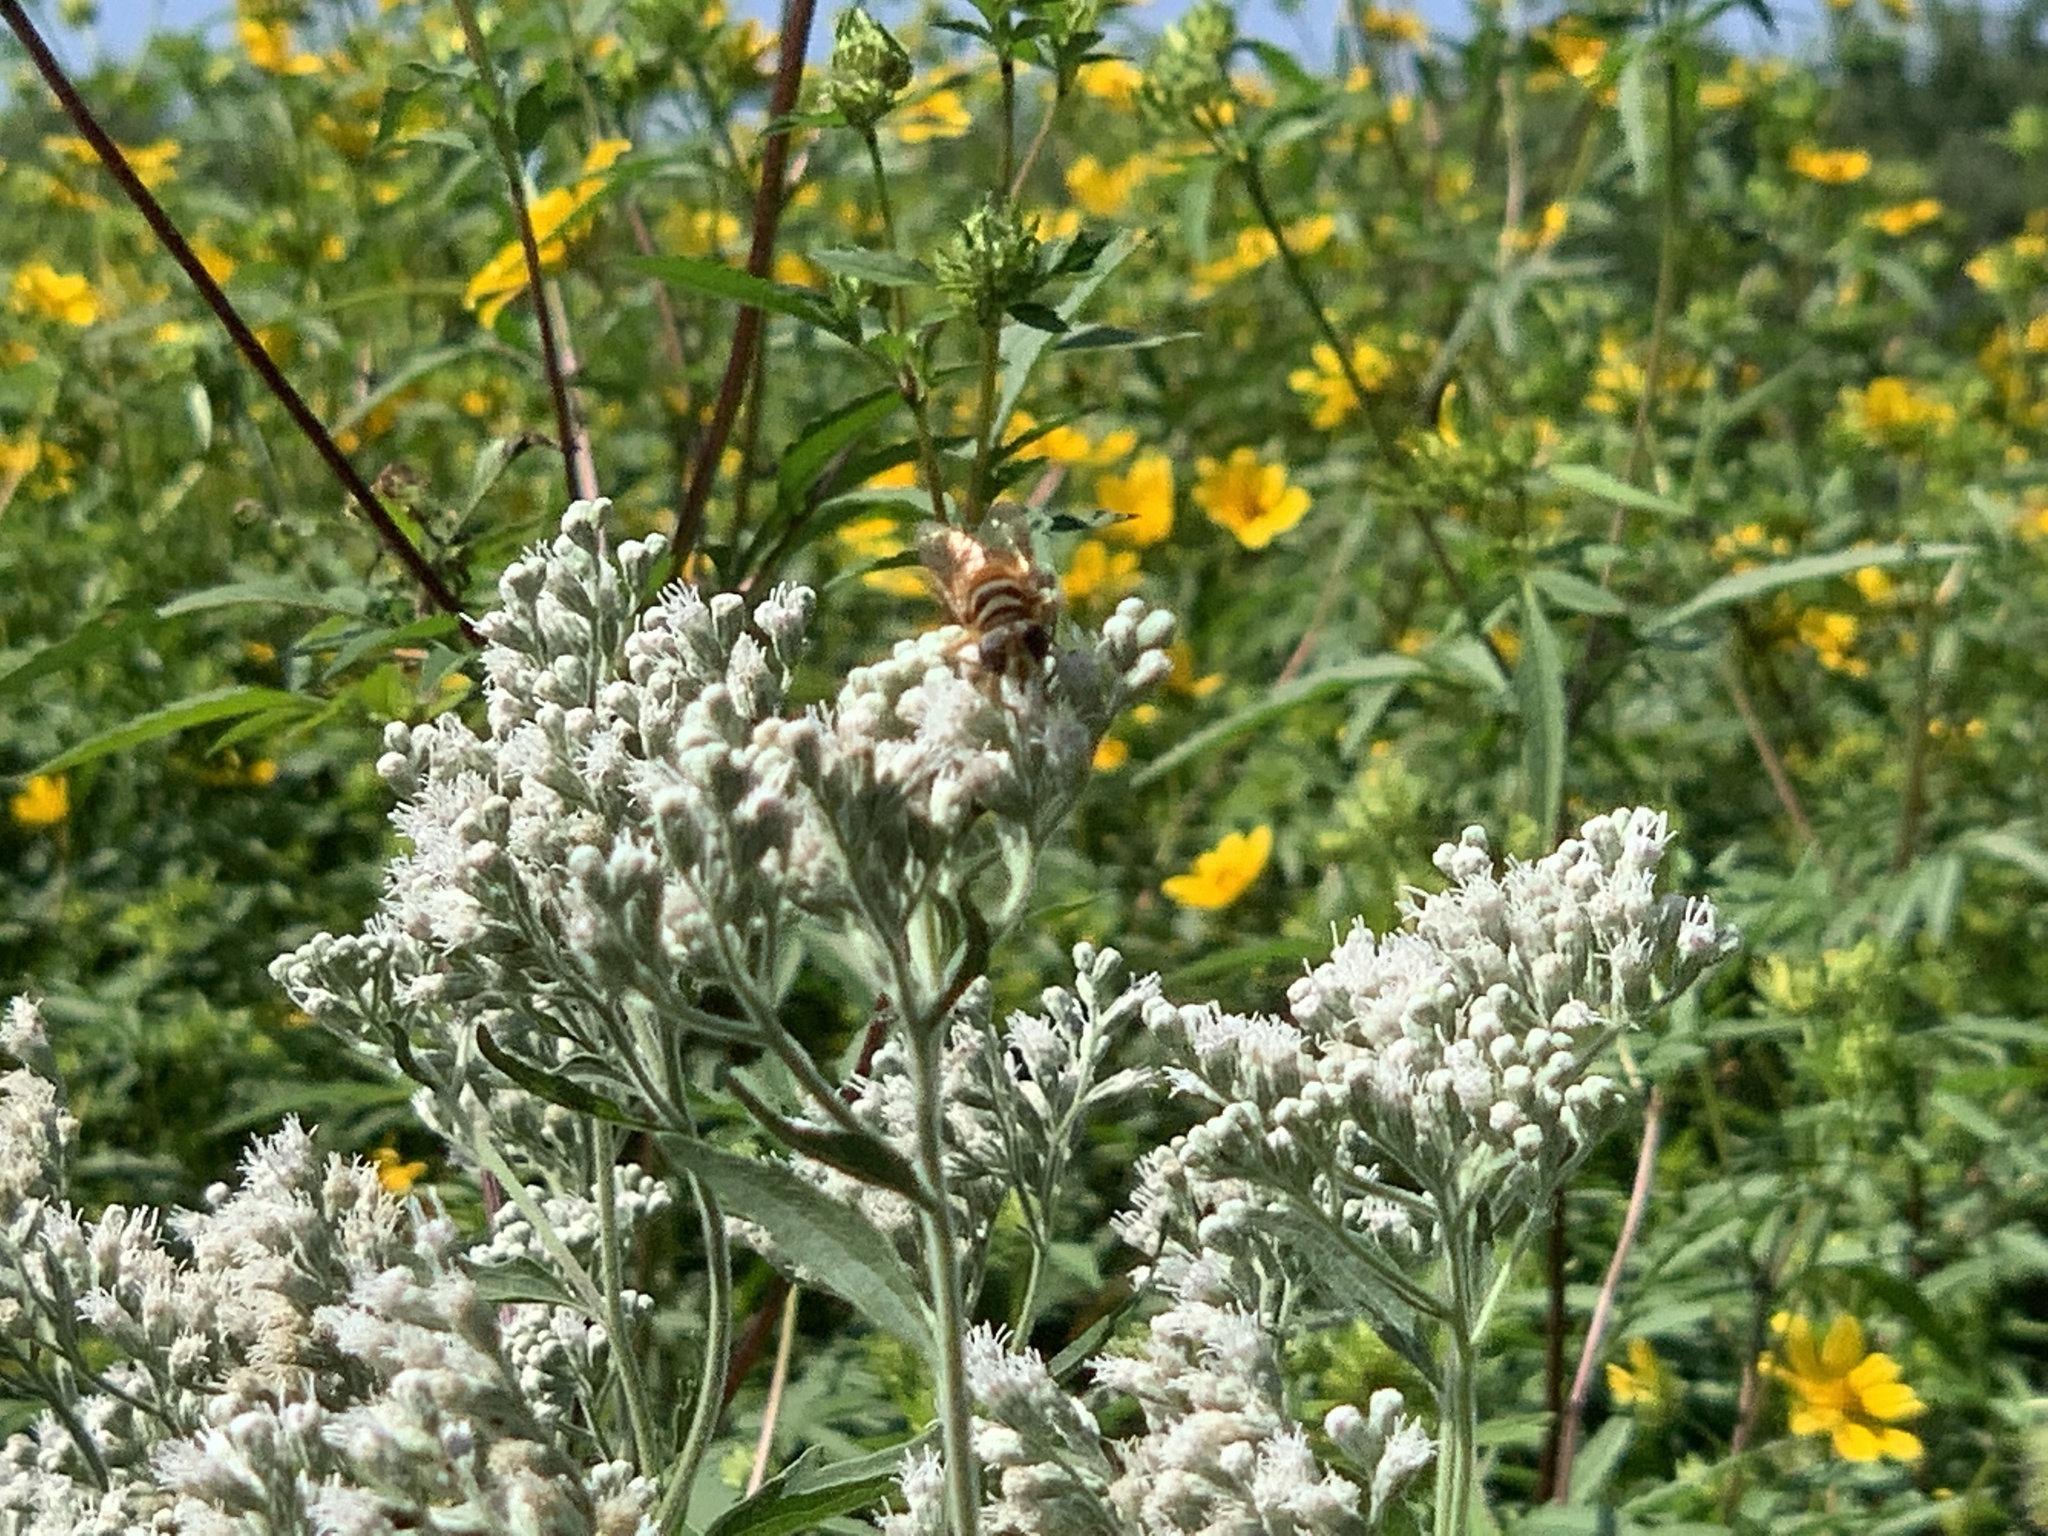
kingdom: Animalia
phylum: Arthropoda
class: Insecta
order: Diptera
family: Syrphidae
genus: Palpada
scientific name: Palpada vinetorum
